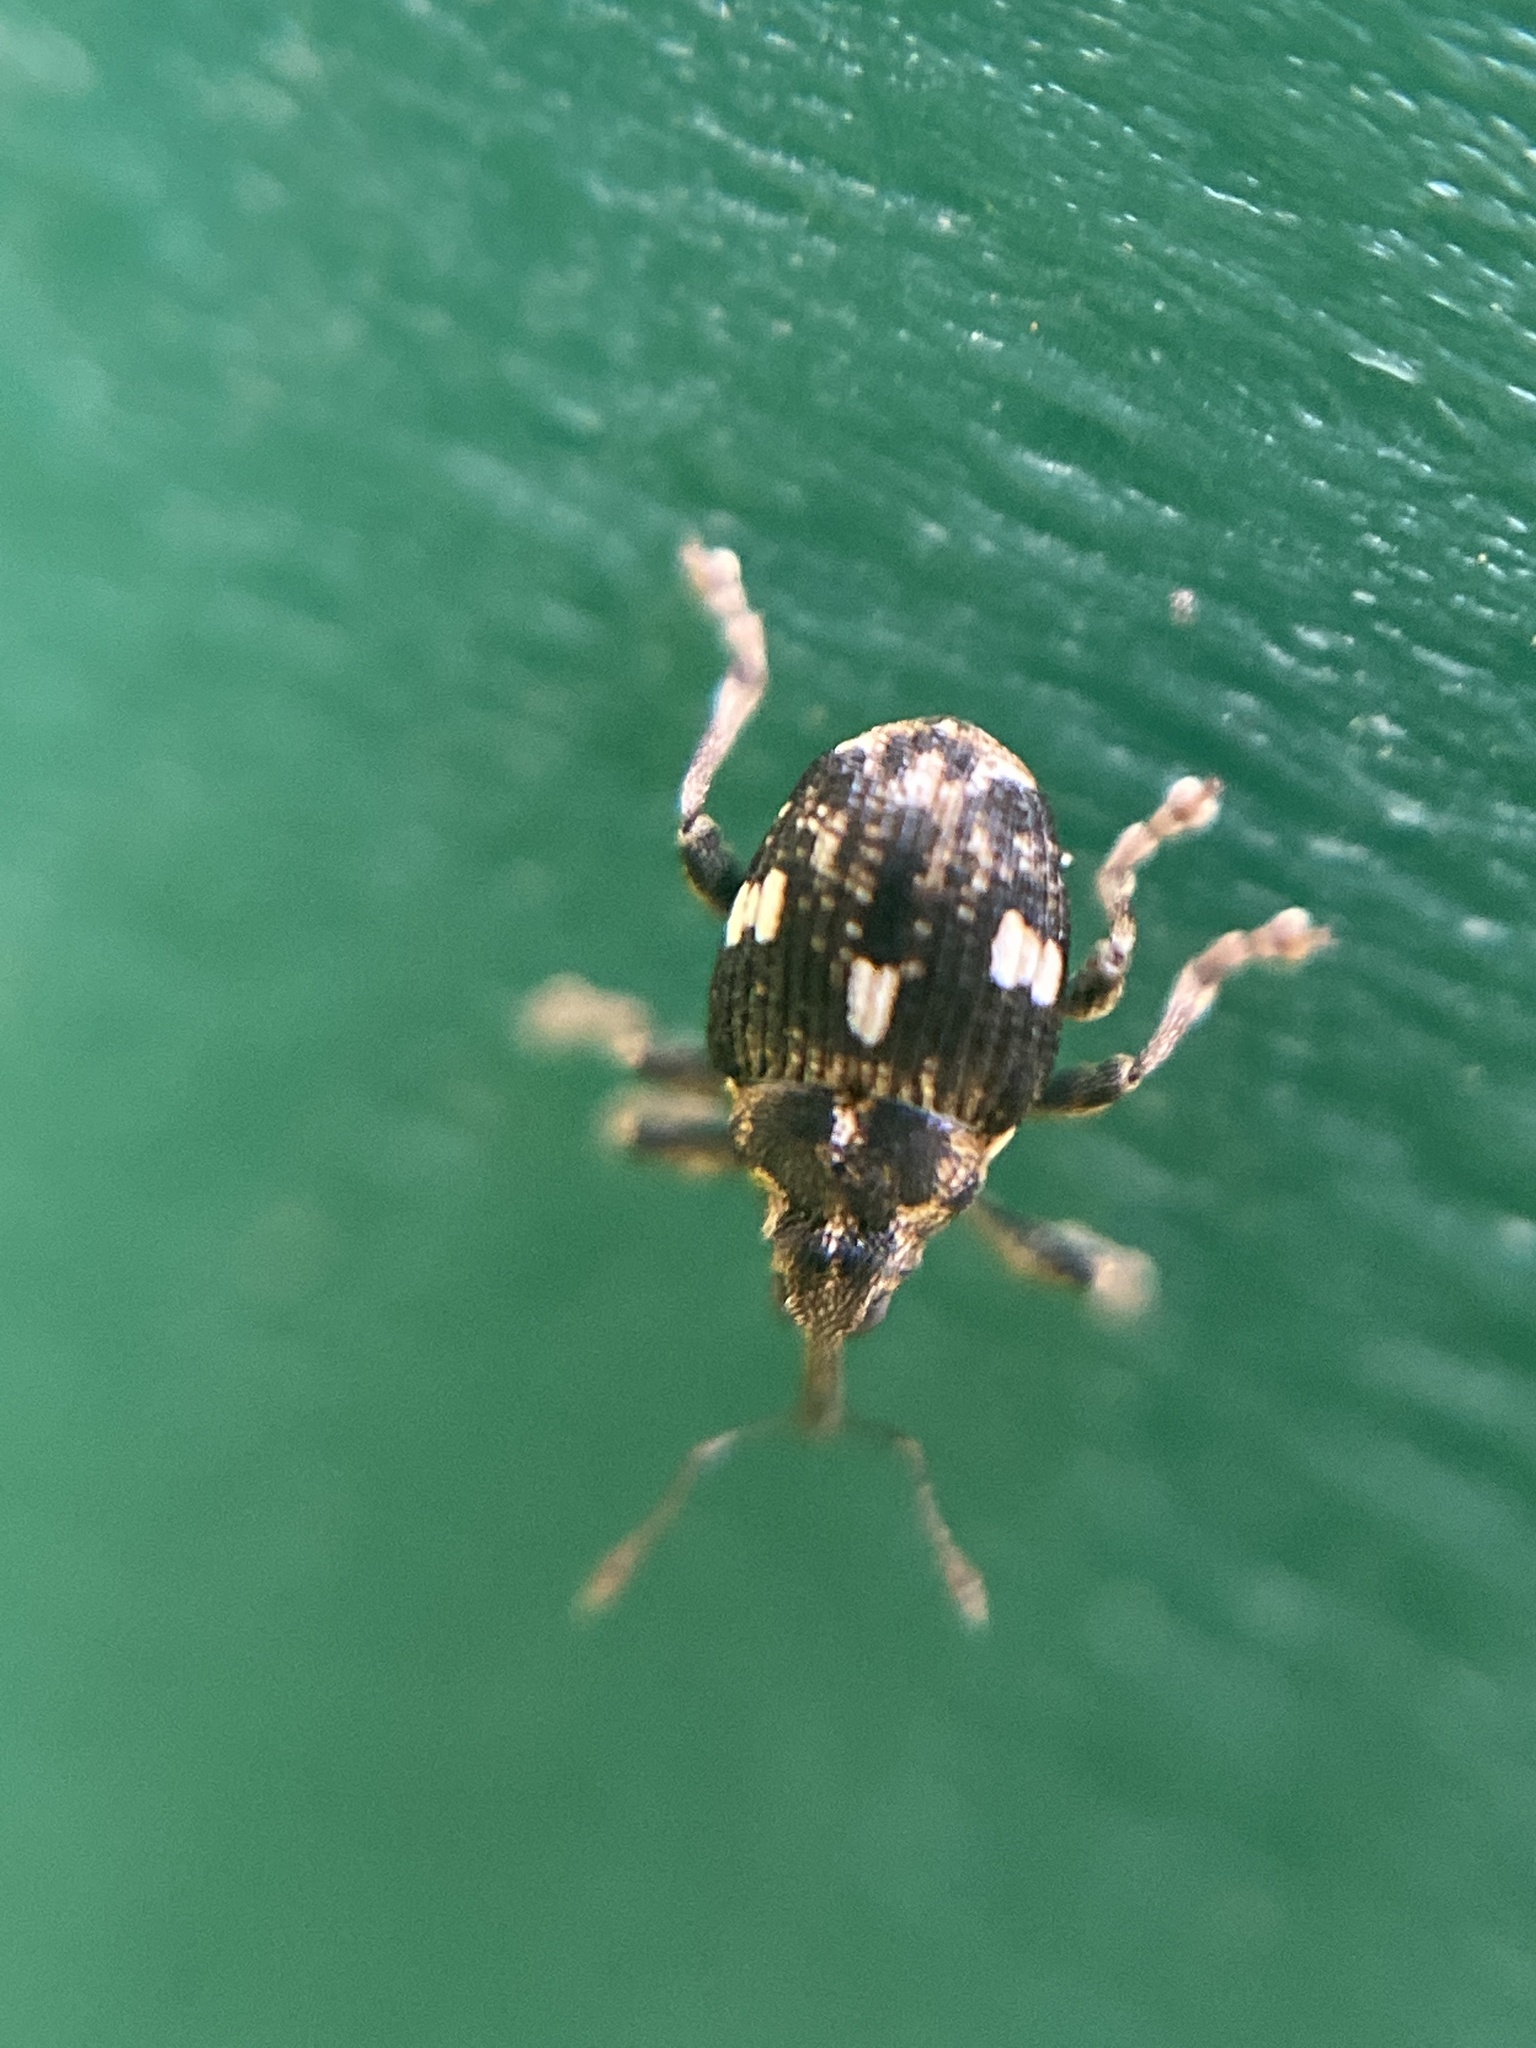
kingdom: Animalia
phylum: Arthropoda
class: Insecta
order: Coleoptera
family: Curculionidae
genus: Mogulones
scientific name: Mogulones asperifoliarum
